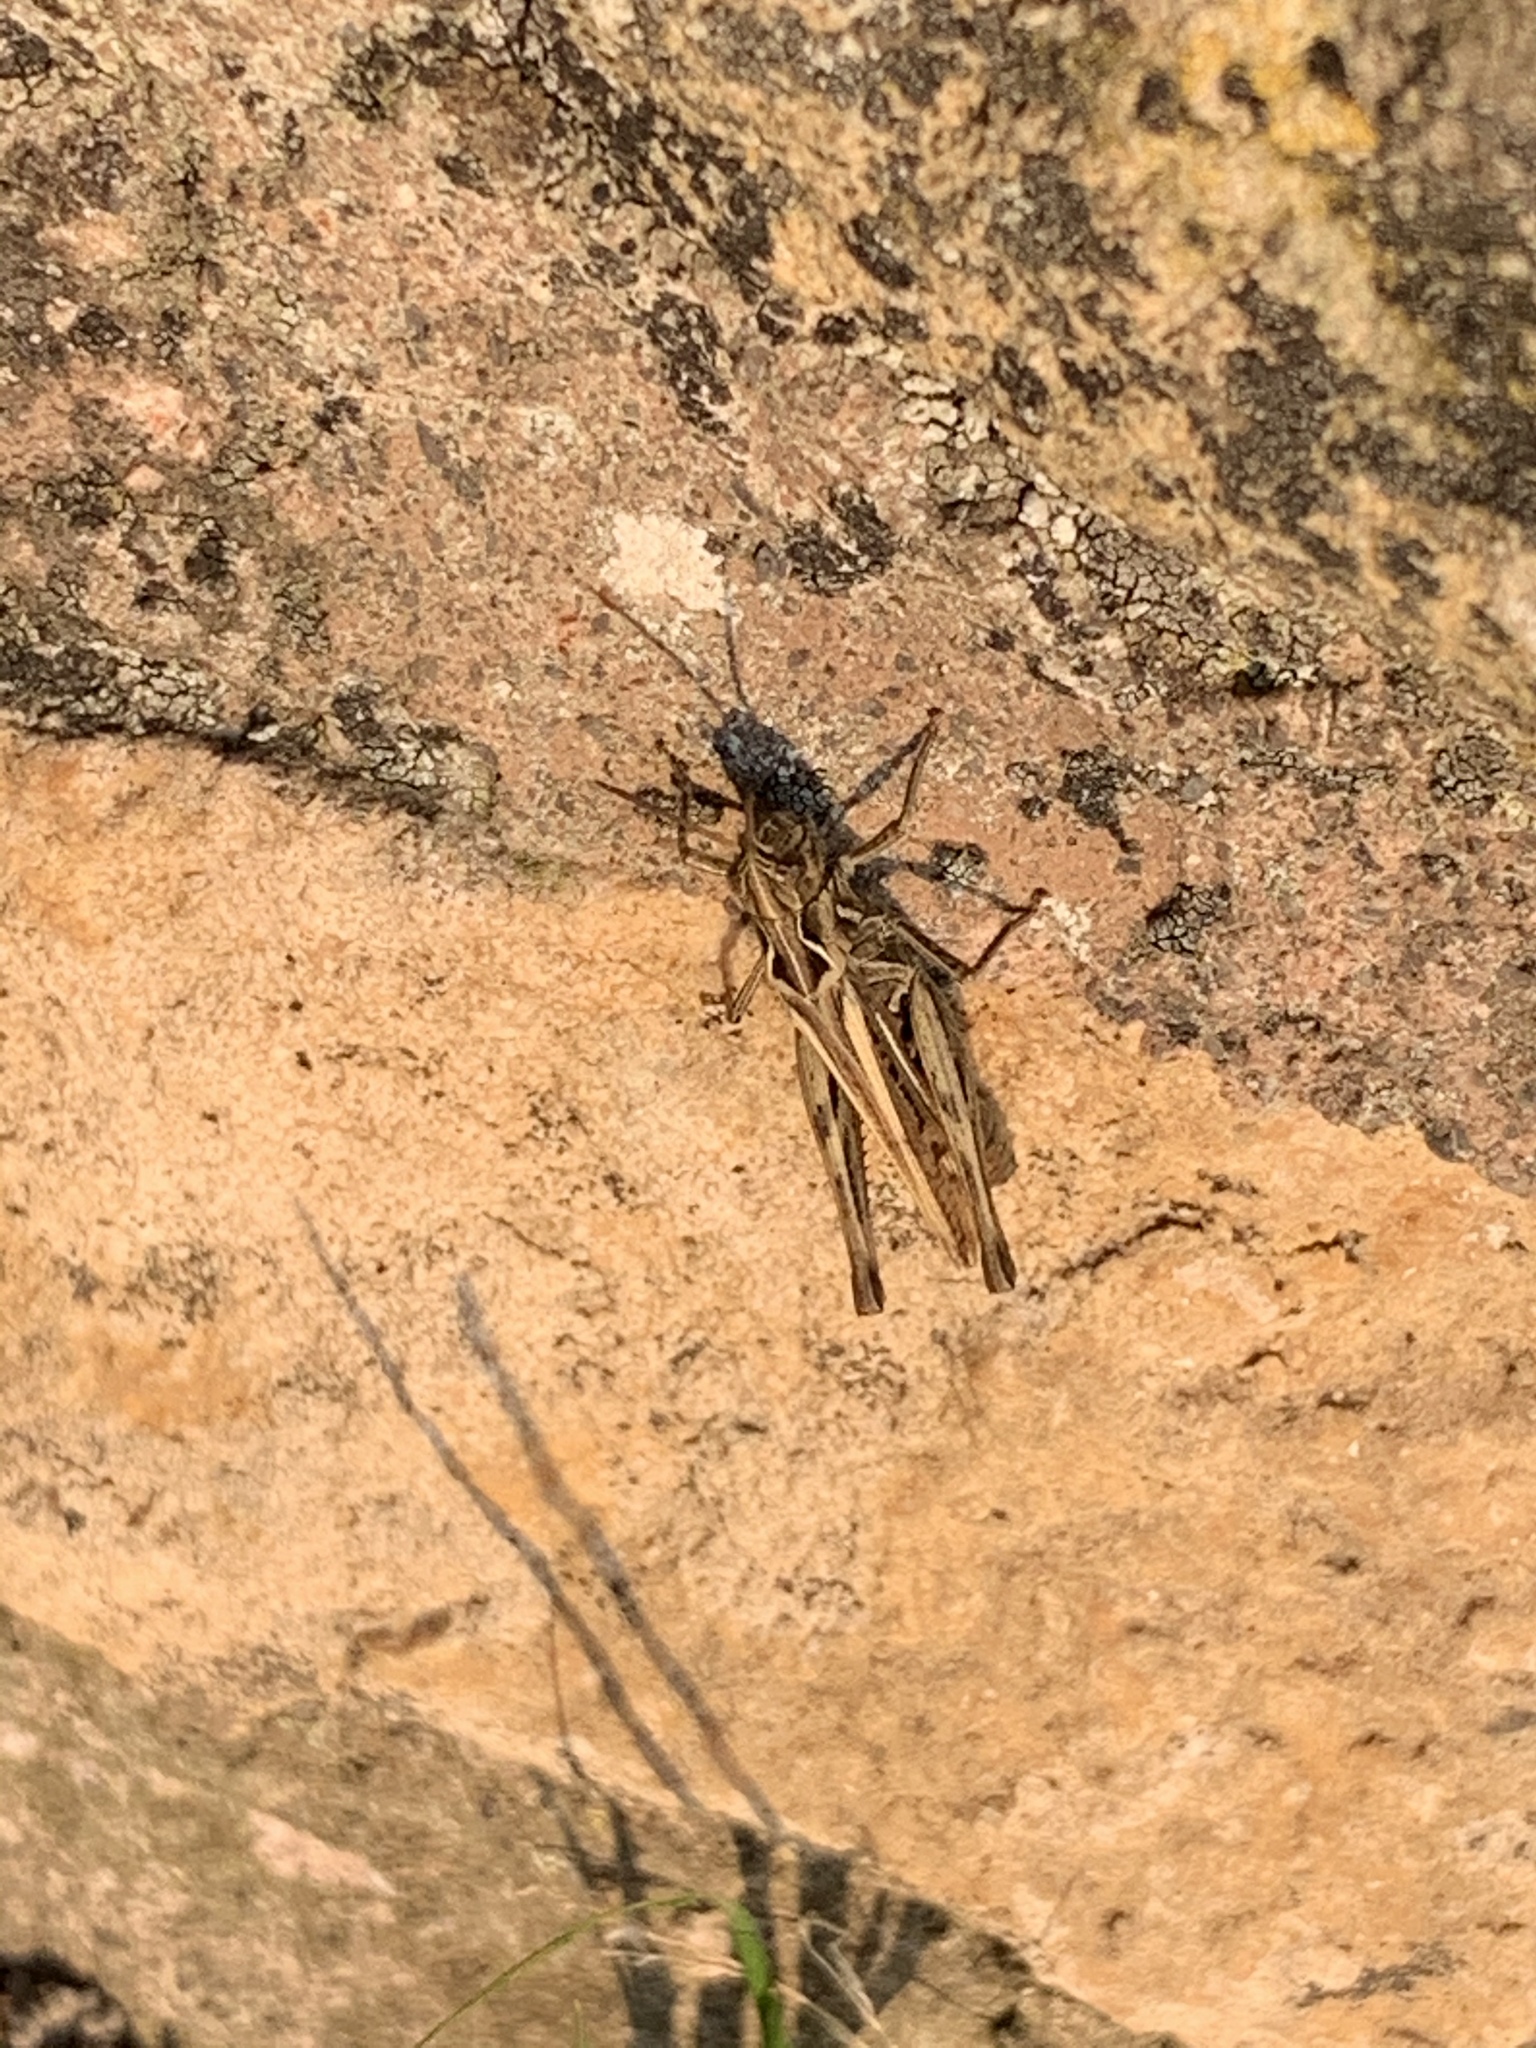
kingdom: Animalia
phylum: Arthropoda
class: Insecta
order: Orthoptera
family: Acrididae
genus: Chorthippus
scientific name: Chorthippus brunneus
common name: Field grasshopper
